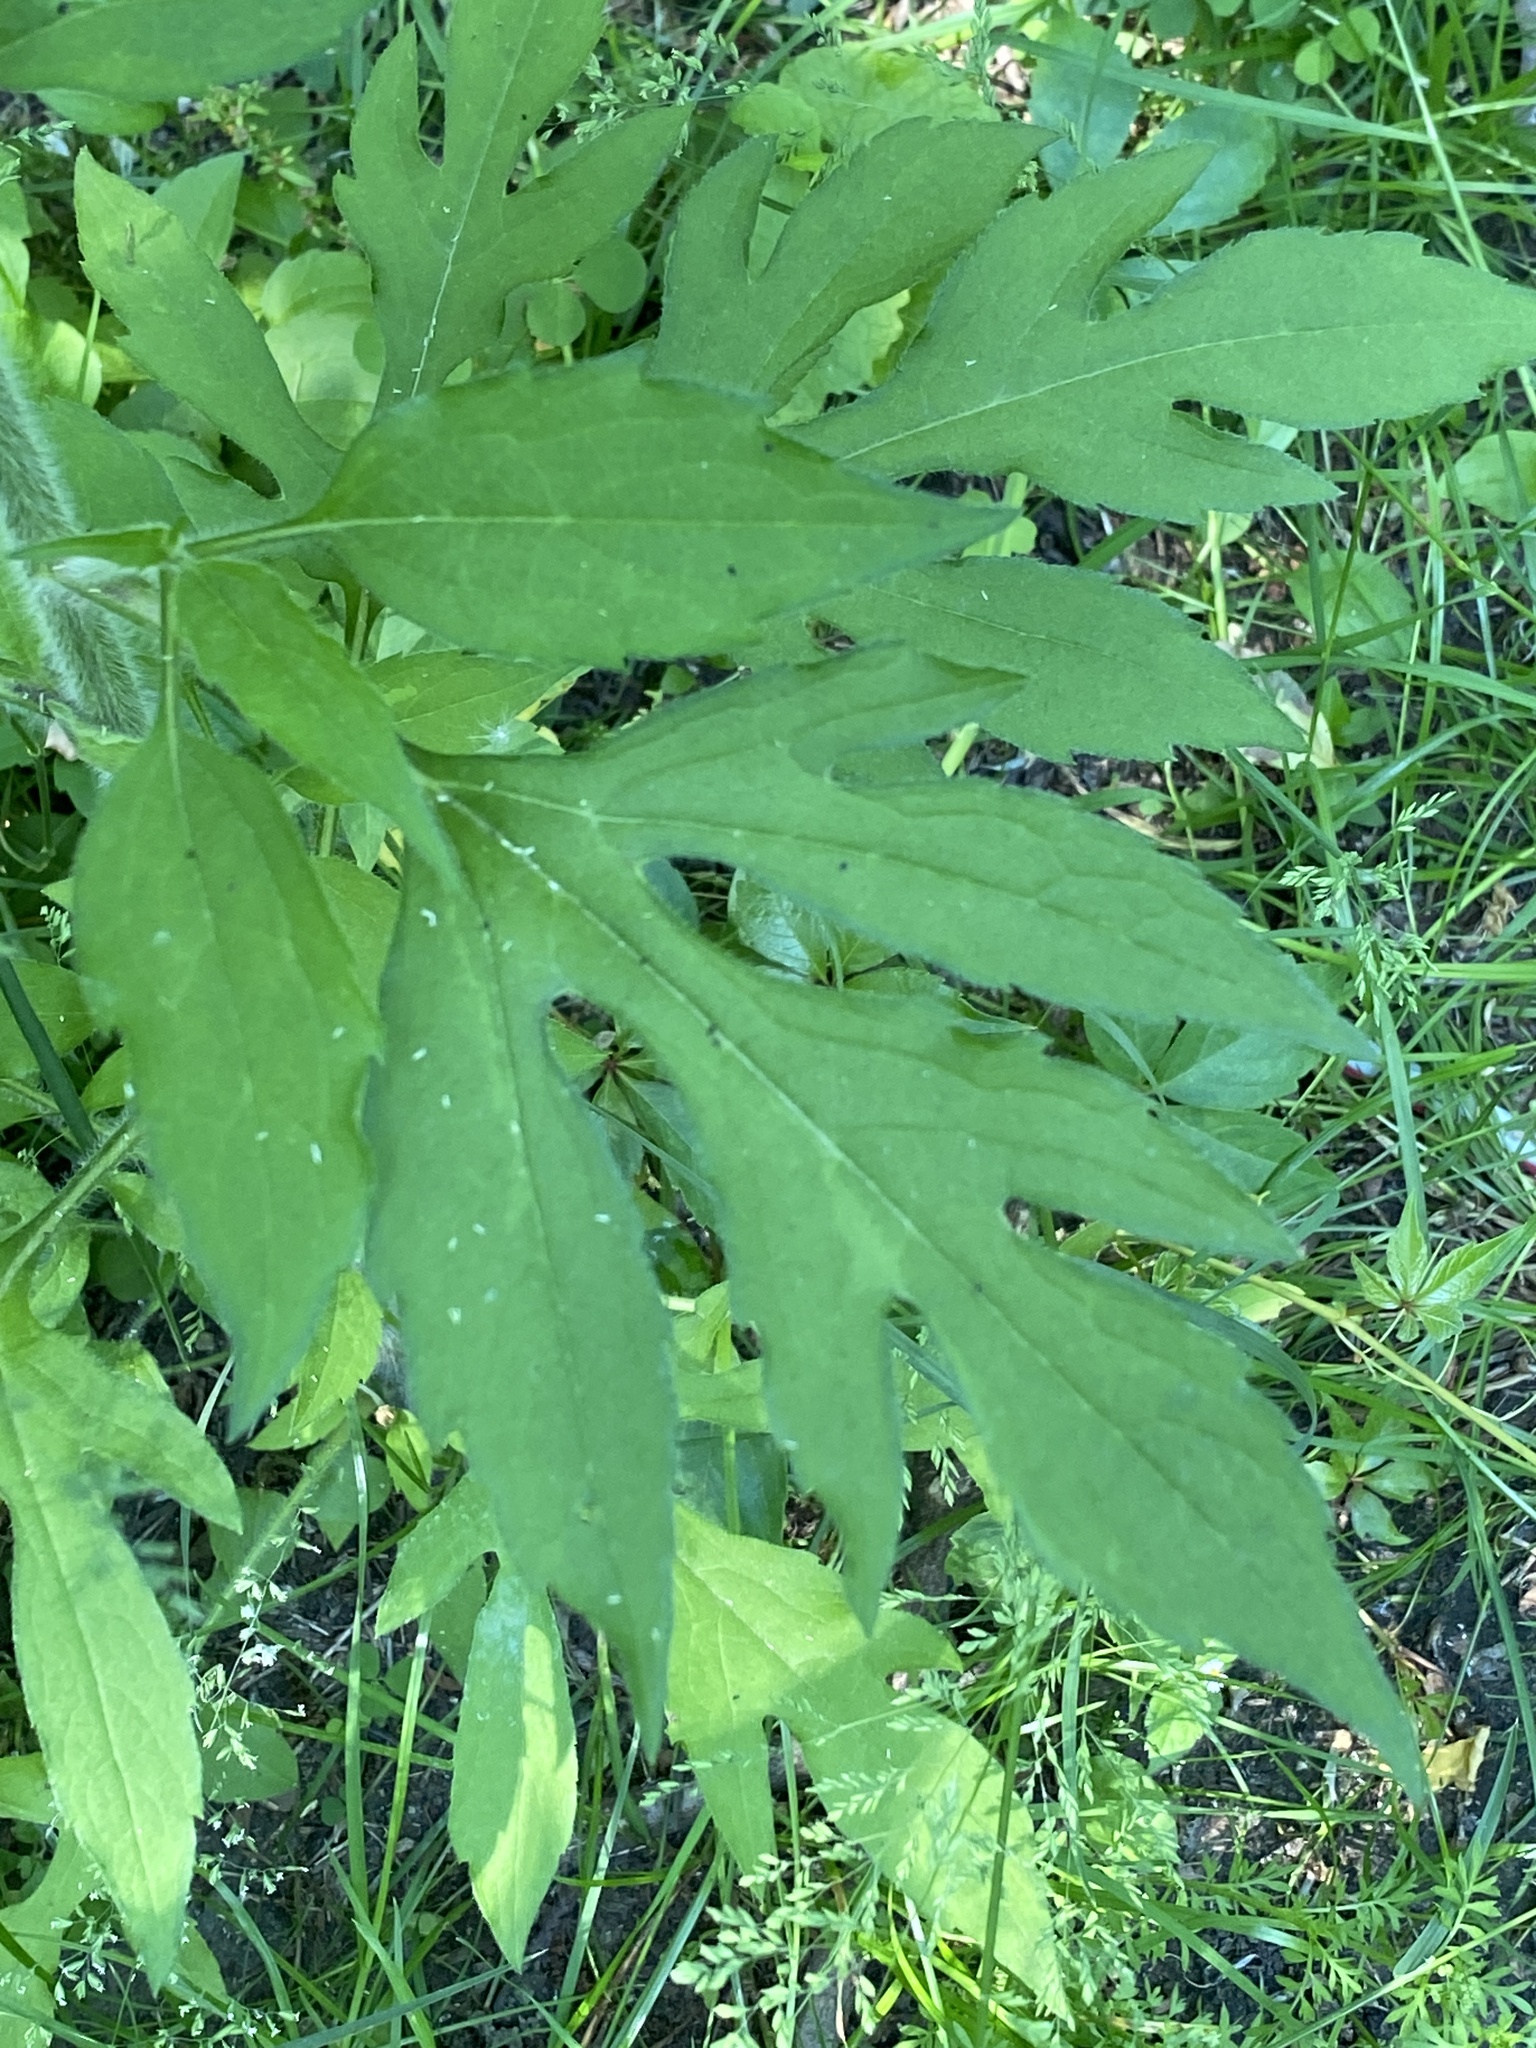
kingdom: Plantae
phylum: Tracheophyta
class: Magnoliopsida
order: Asterales
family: Asteraceae
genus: Ambrosia
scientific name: Ambrosia trifida
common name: Giant ragweed
